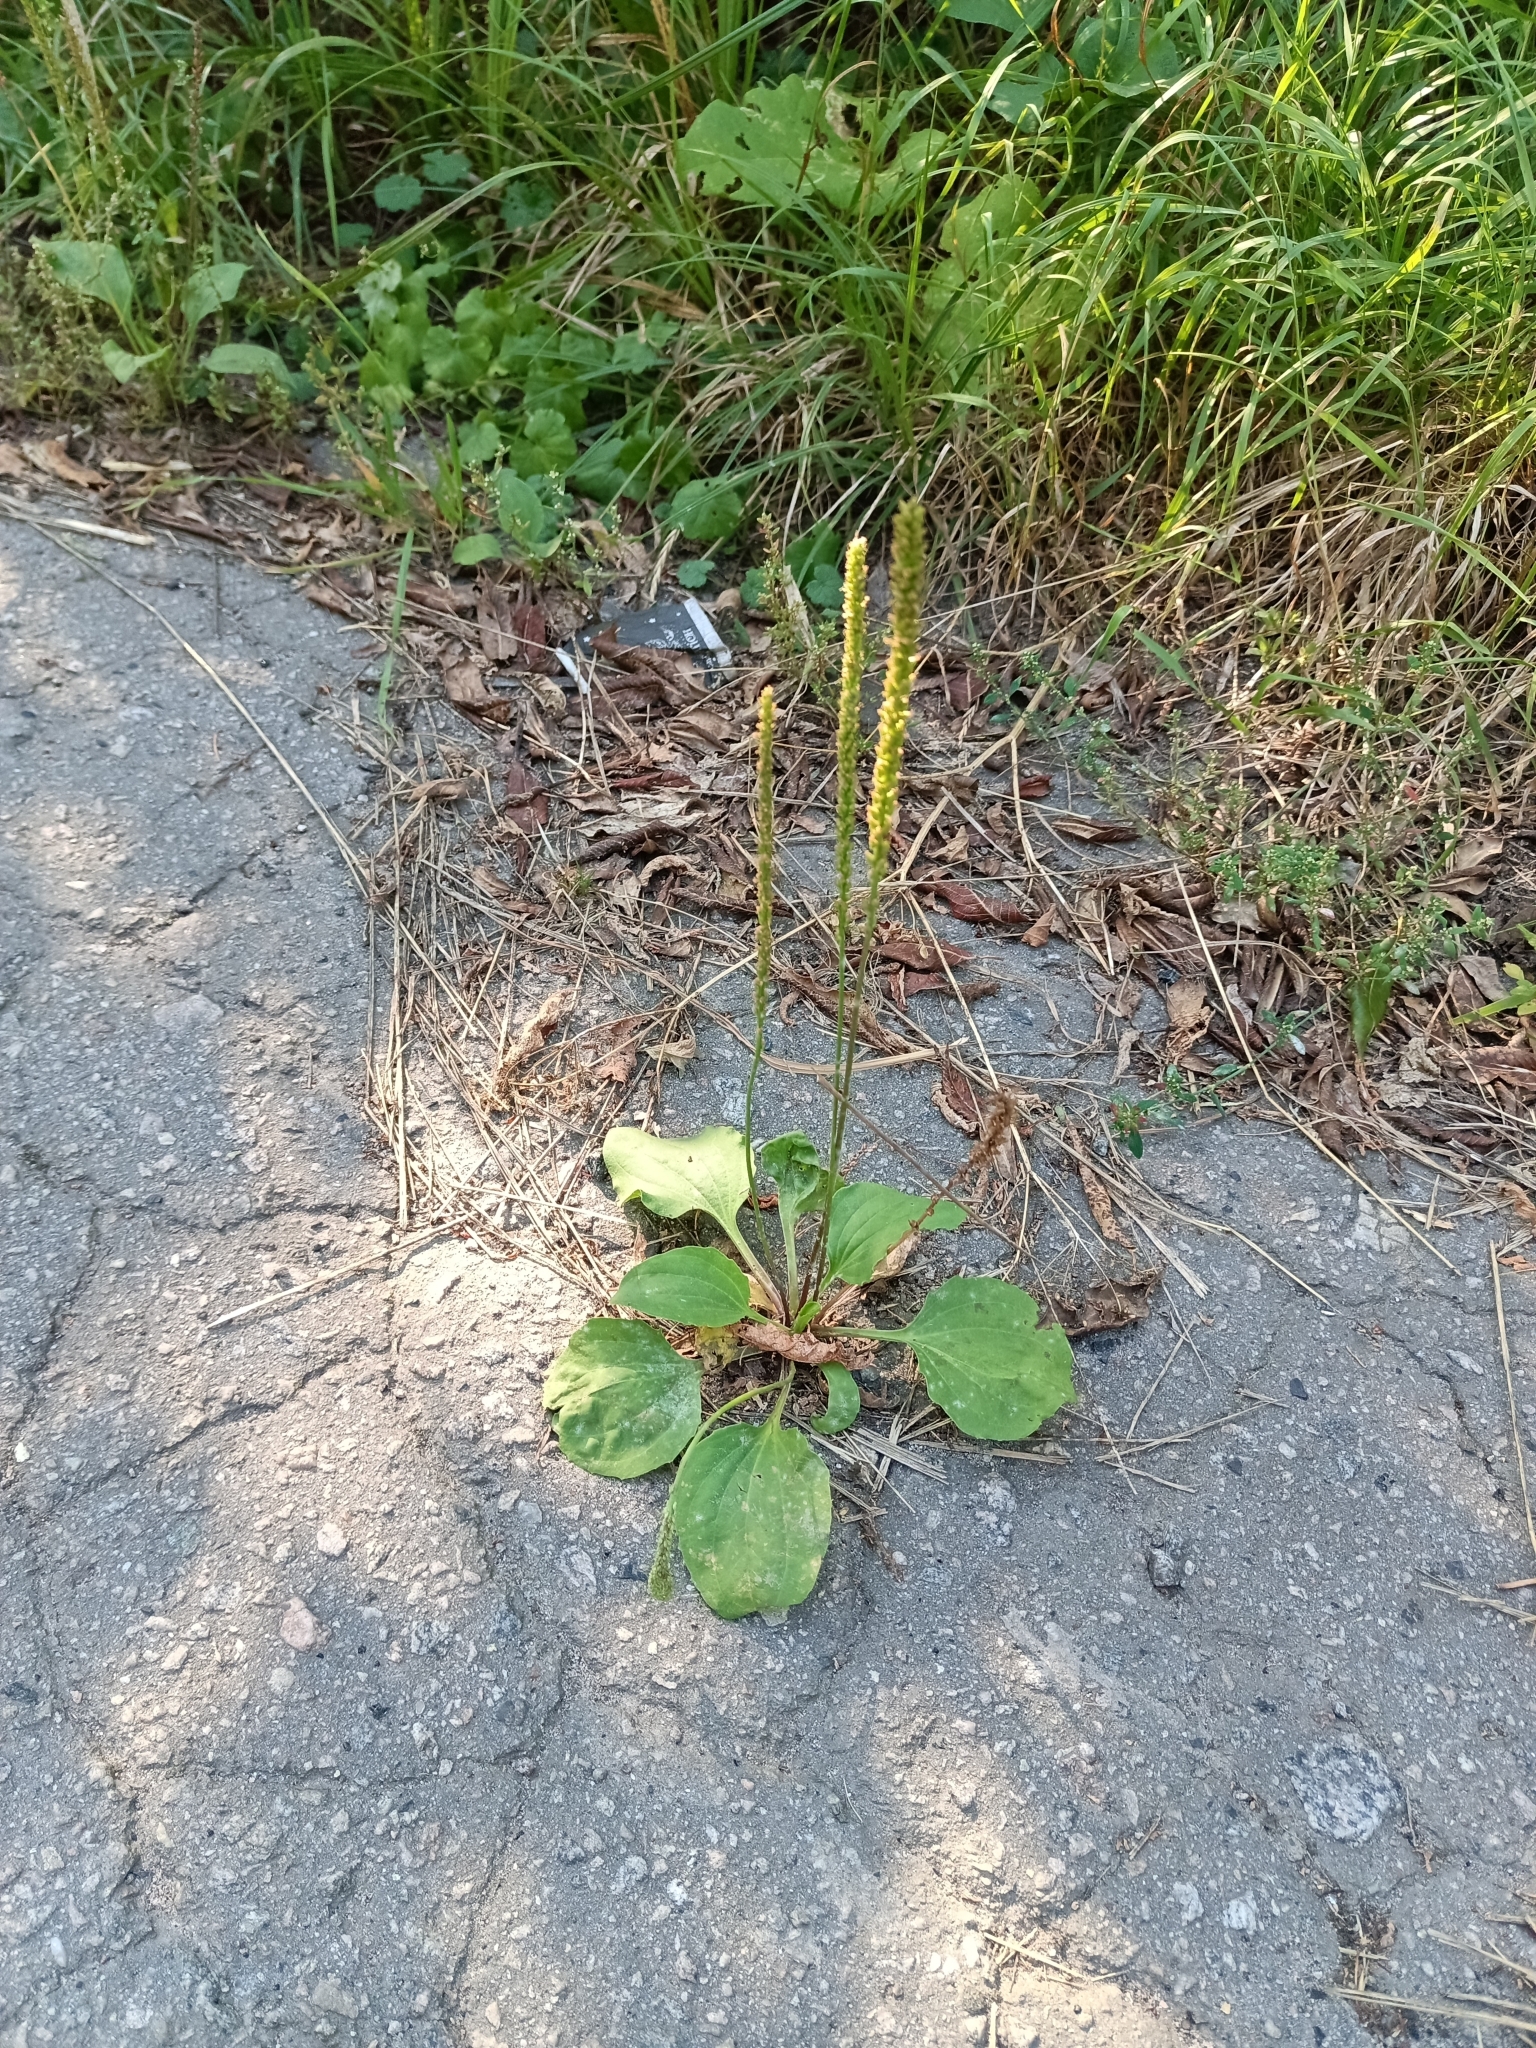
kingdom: Plantae
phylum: Tracheophyta
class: Magnoliopsida
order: Lamiales
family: Plantaginaceae
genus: Plantago
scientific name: Plantago major
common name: Common plantain
